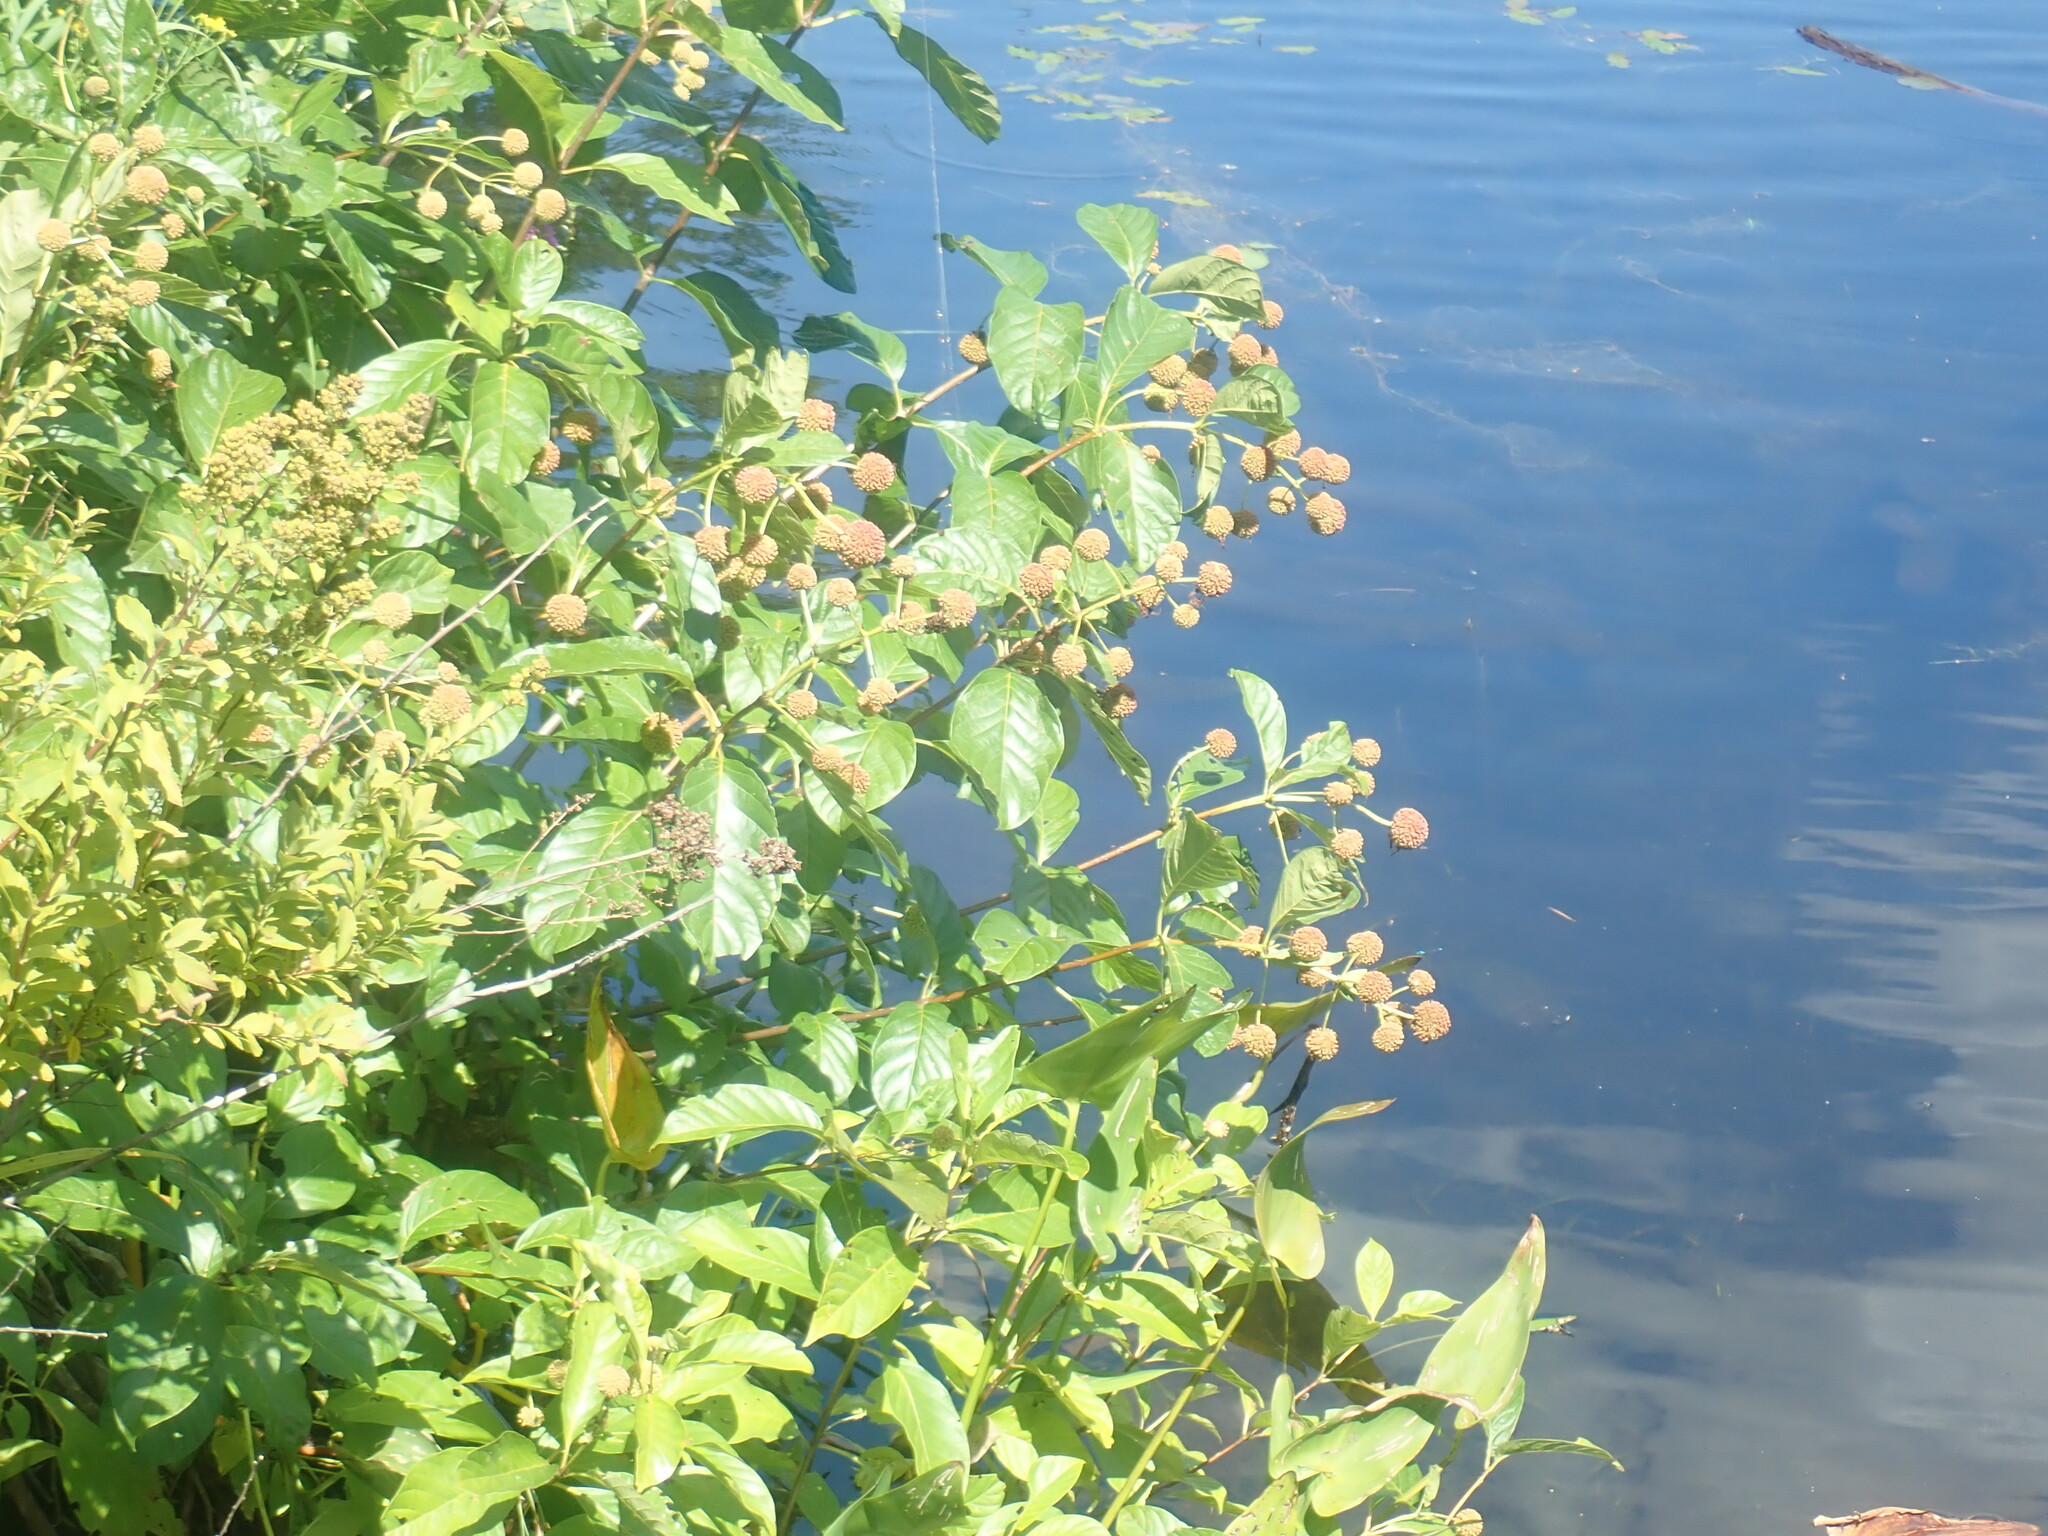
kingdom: Plantae
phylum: Tracheophyta
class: Magnoliopsida
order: Gentianales
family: Rubiaceae
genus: Cephalanthus
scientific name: Cephalanthus occidentalis
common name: Button-willow
